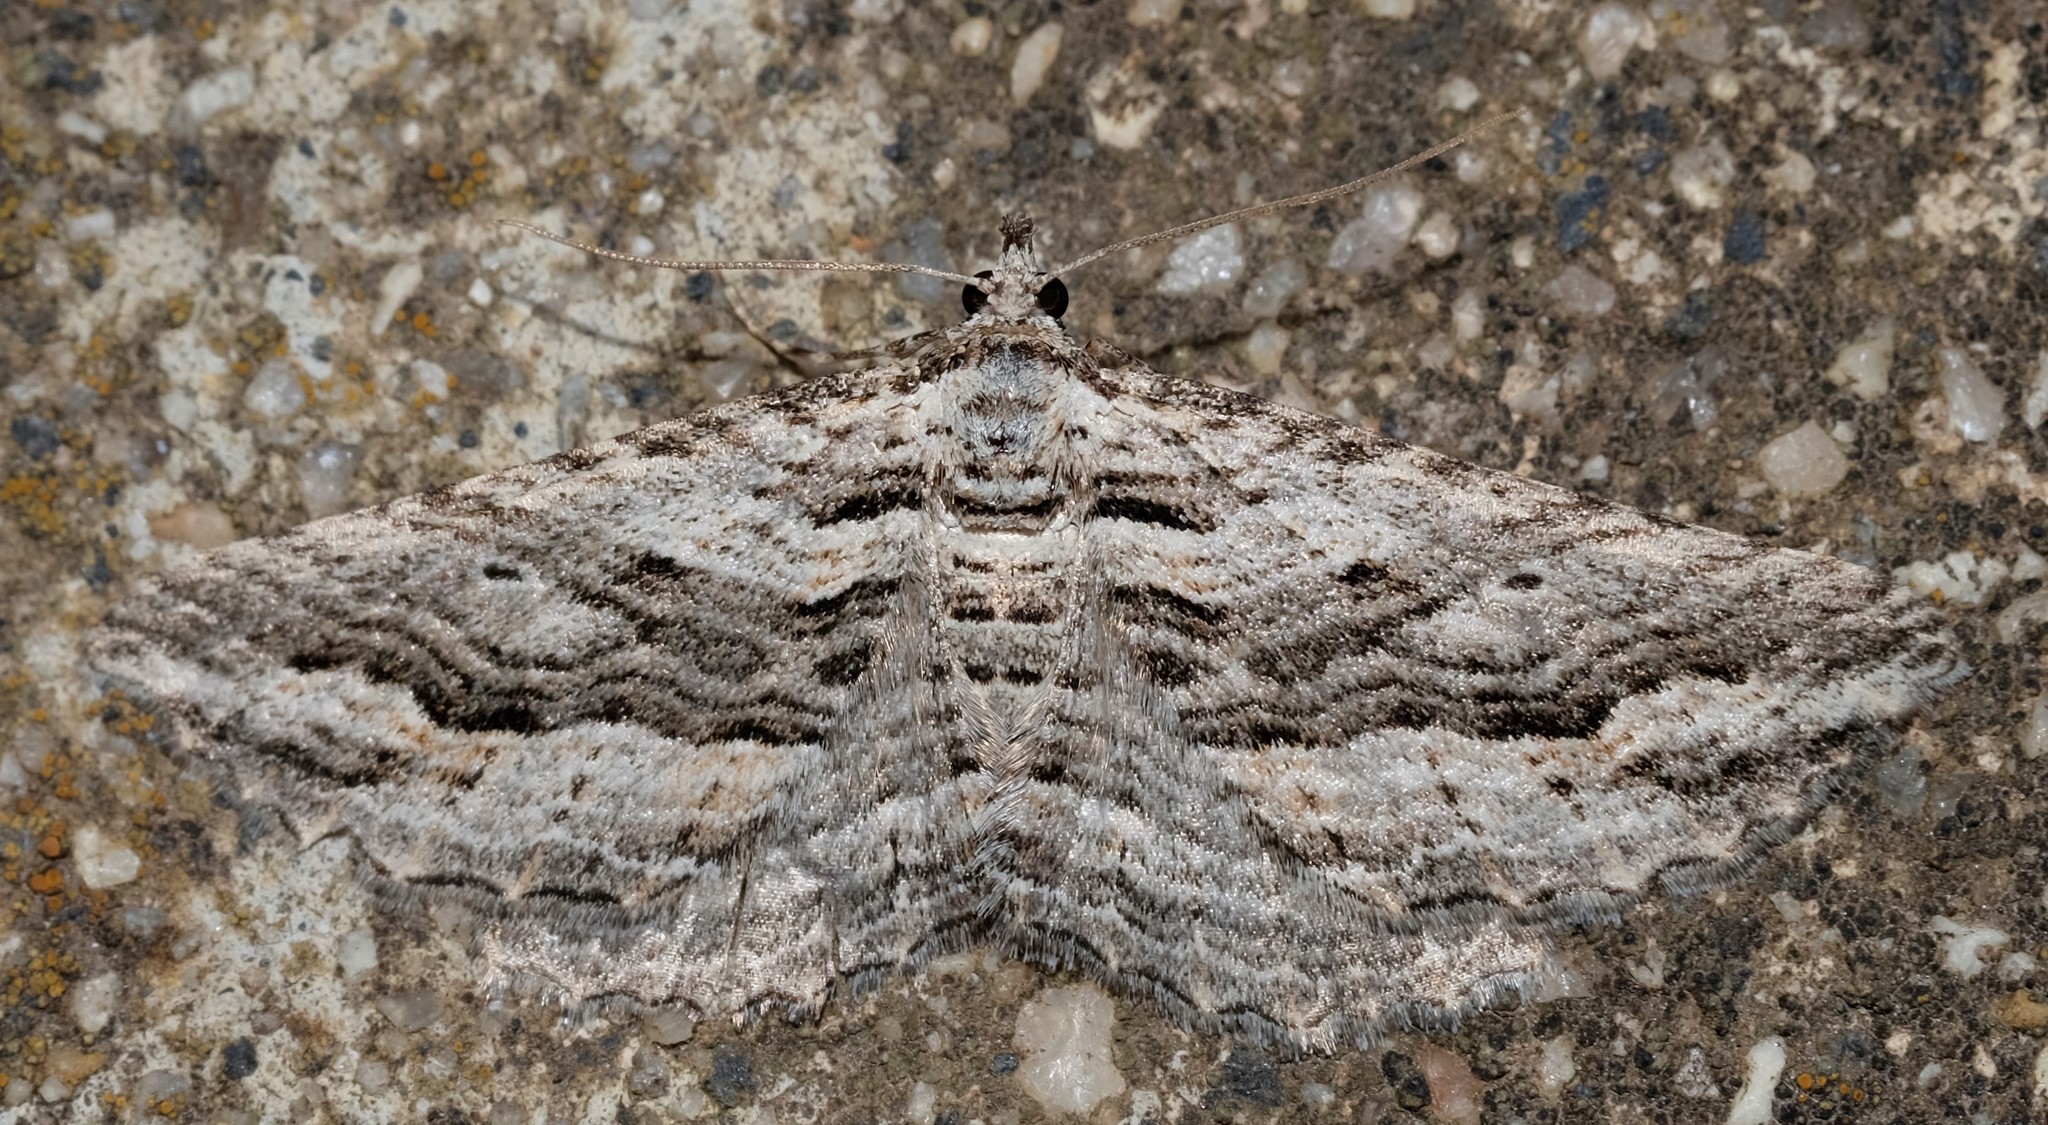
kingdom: Animalia
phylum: Arthropoda
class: Insecta
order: Lepidoptera
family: Geometridae
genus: Chrysolarentia
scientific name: Chrysolarentia severata
